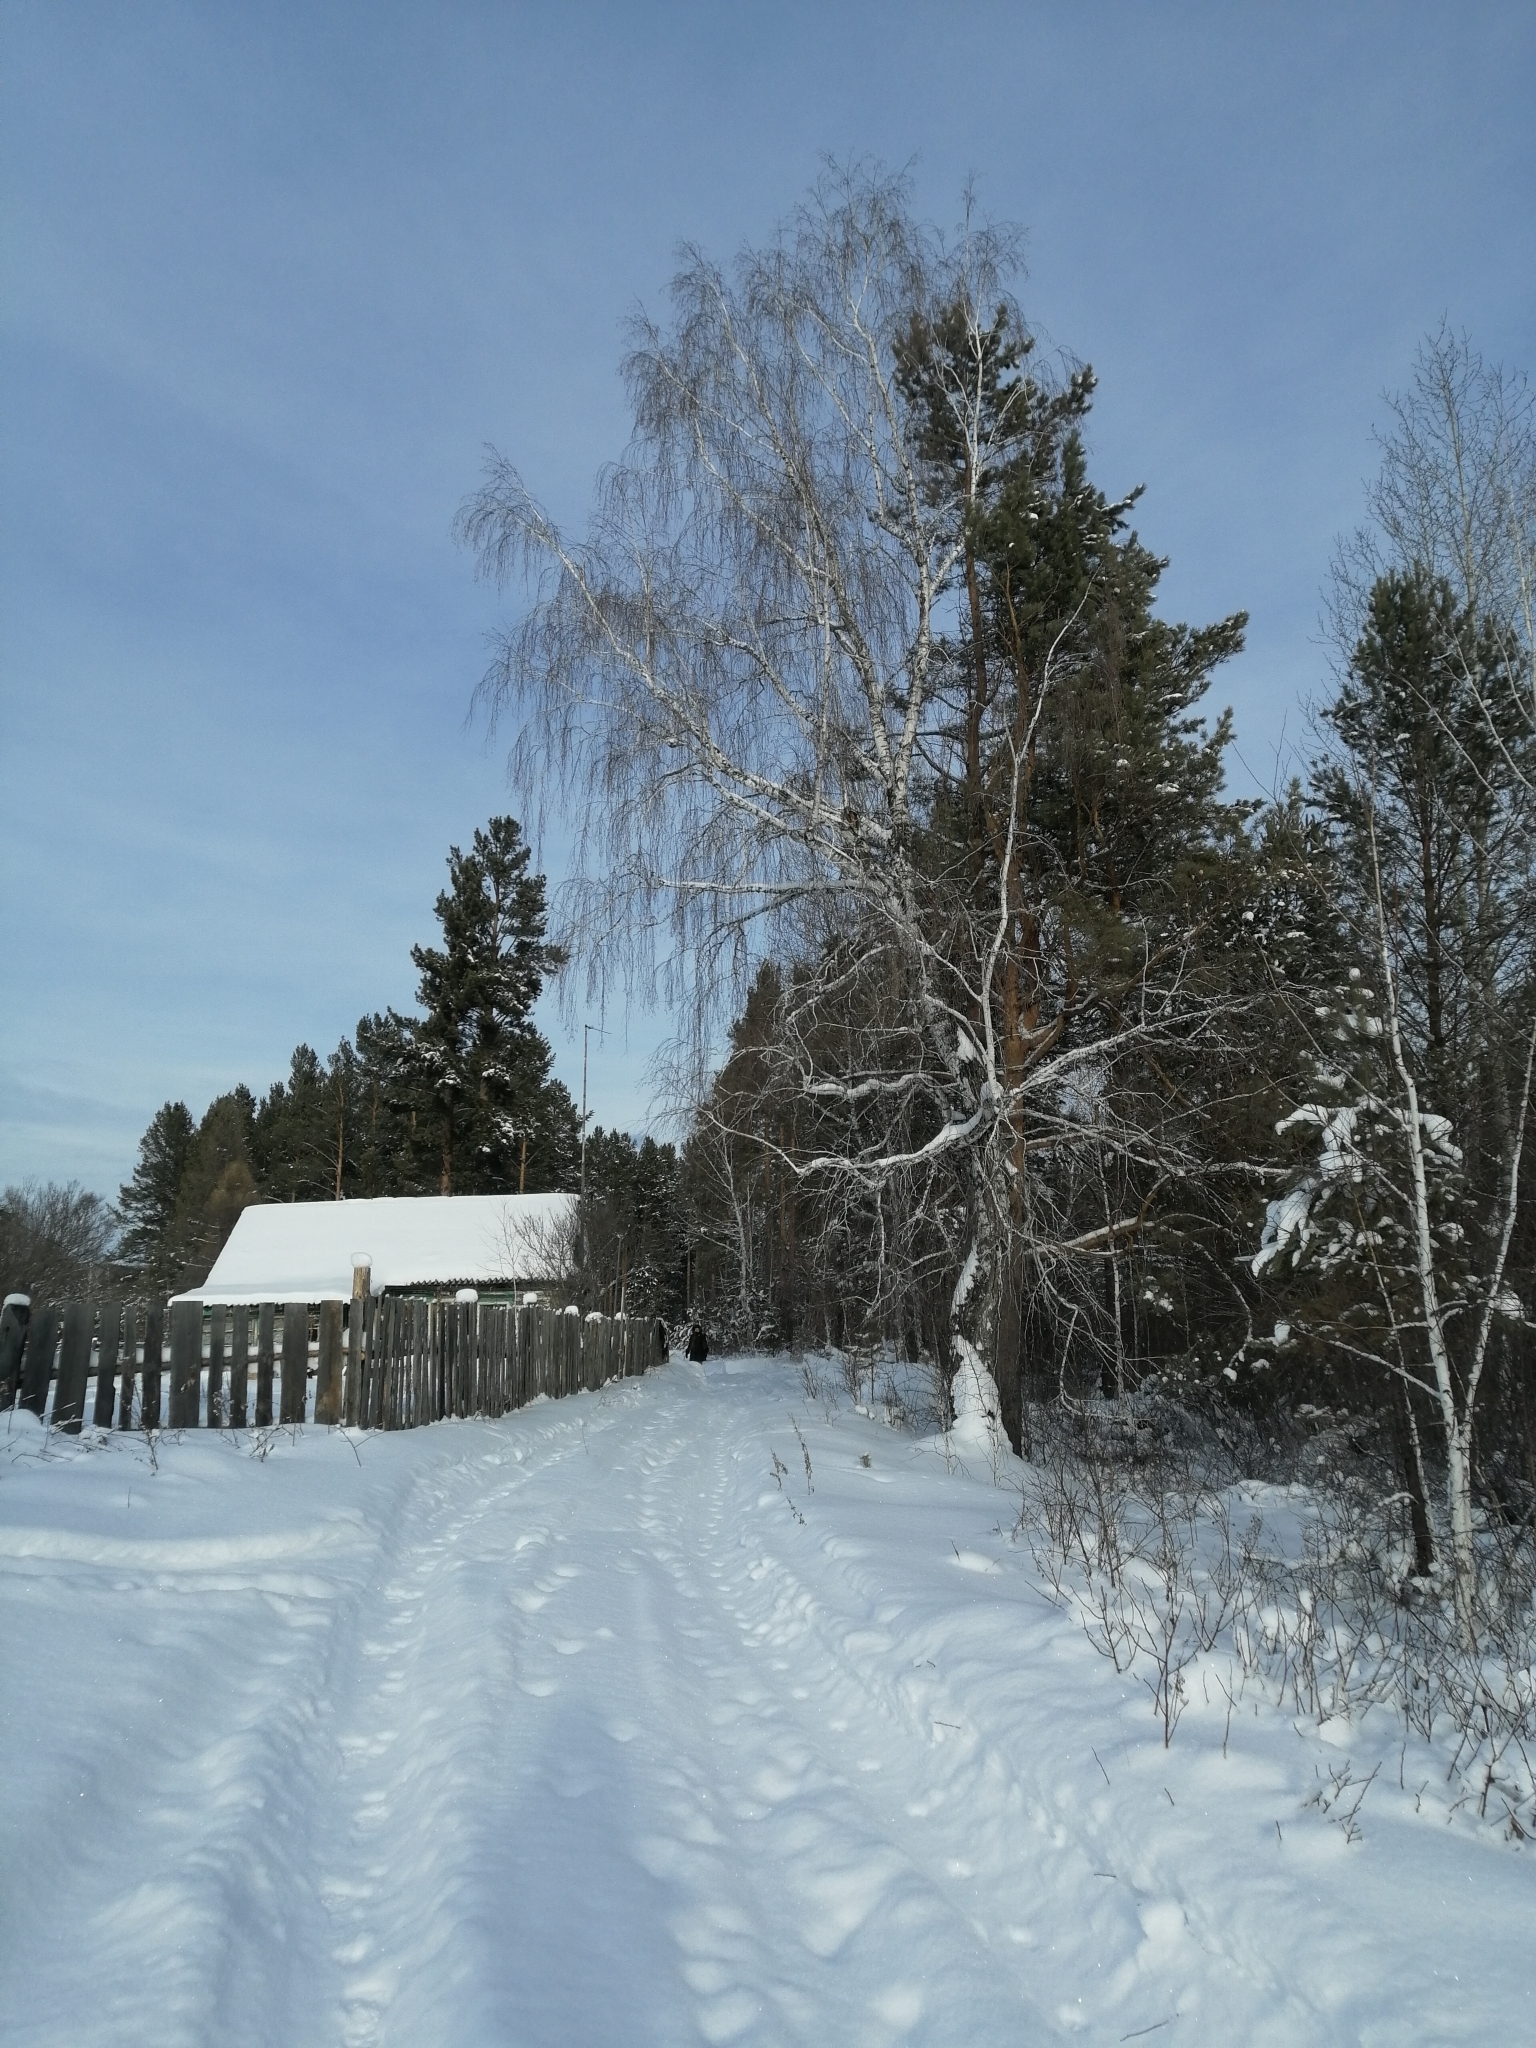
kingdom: Plantae
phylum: Tracheophyta
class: Magnoliopsida
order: Fagales
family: Betulaceae
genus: Betula
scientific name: Betula pendula
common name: Silver birch
